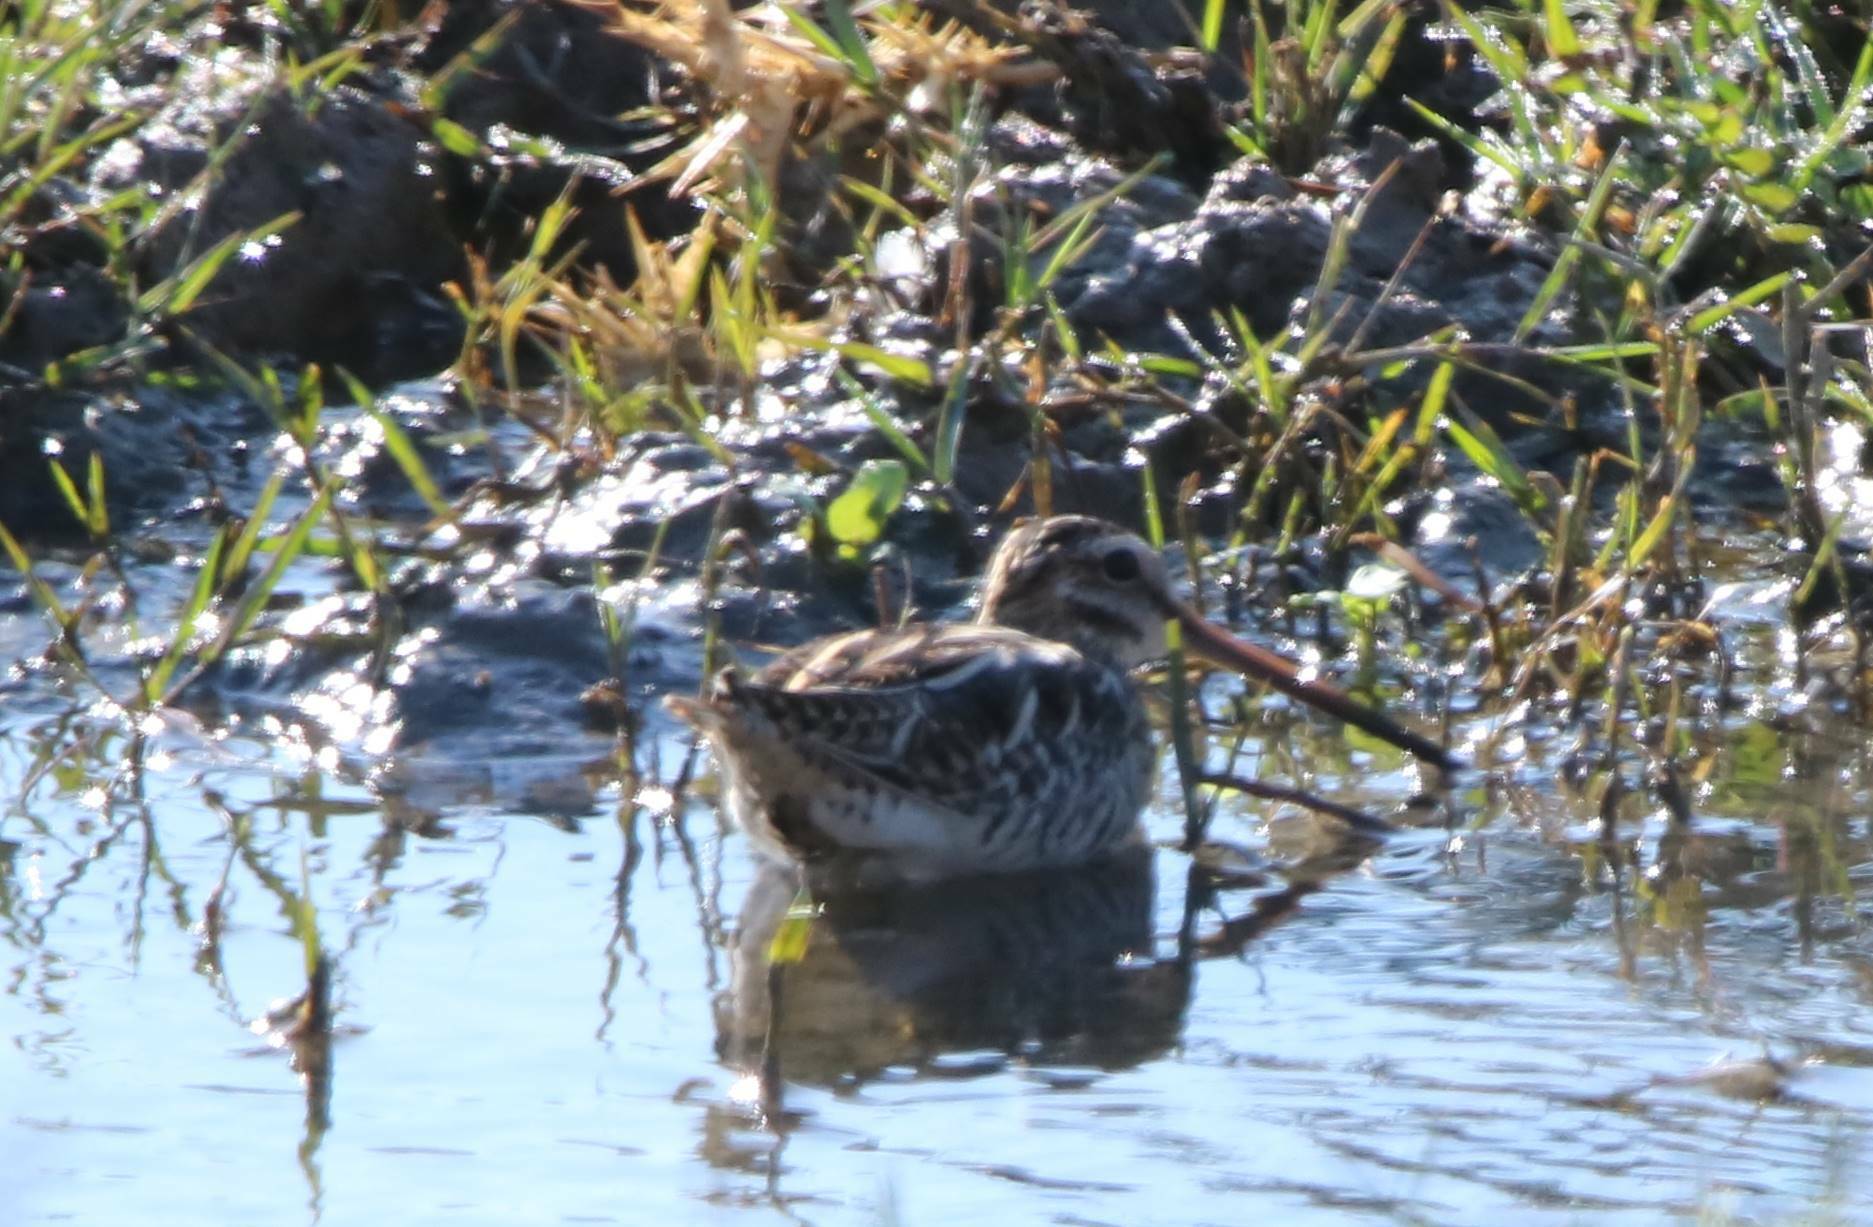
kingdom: Animalia
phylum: Chordata
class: Aves
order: Charadriiformes
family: Scolopacidae
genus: Gallinago
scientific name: Gallinago gallinago
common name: Common snipe
